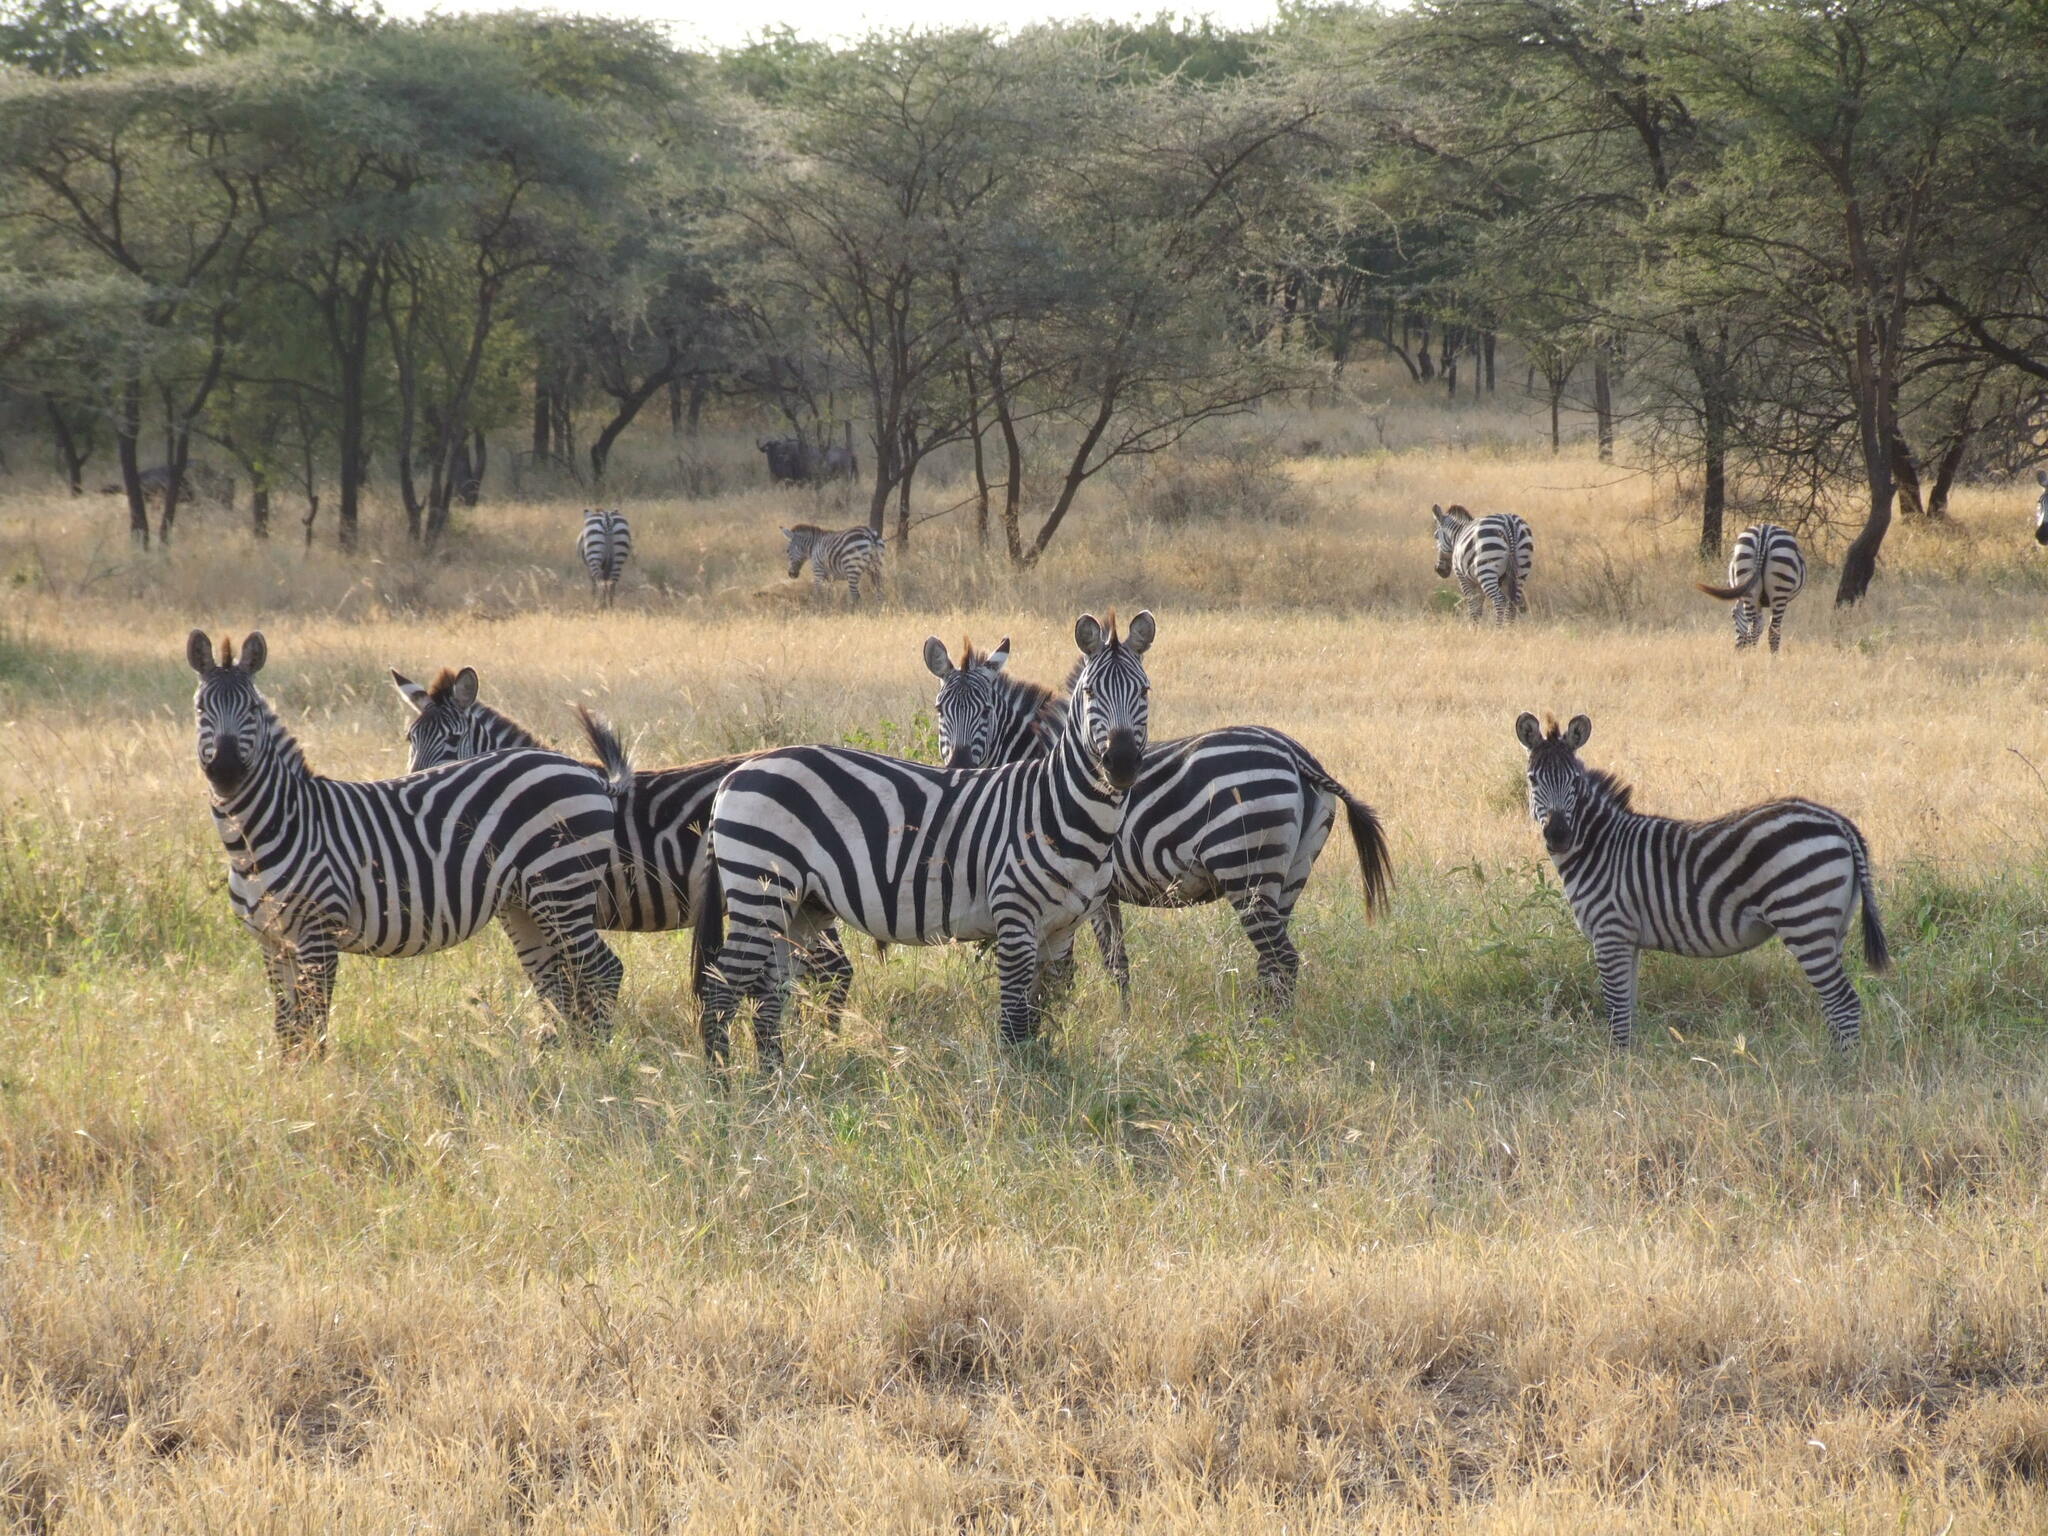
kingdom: Animalia
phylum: Chordata
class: Mammalia
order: Perissodactyla
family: Equidae
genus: Equus
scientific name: Equus quagga
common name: Plains zebra
